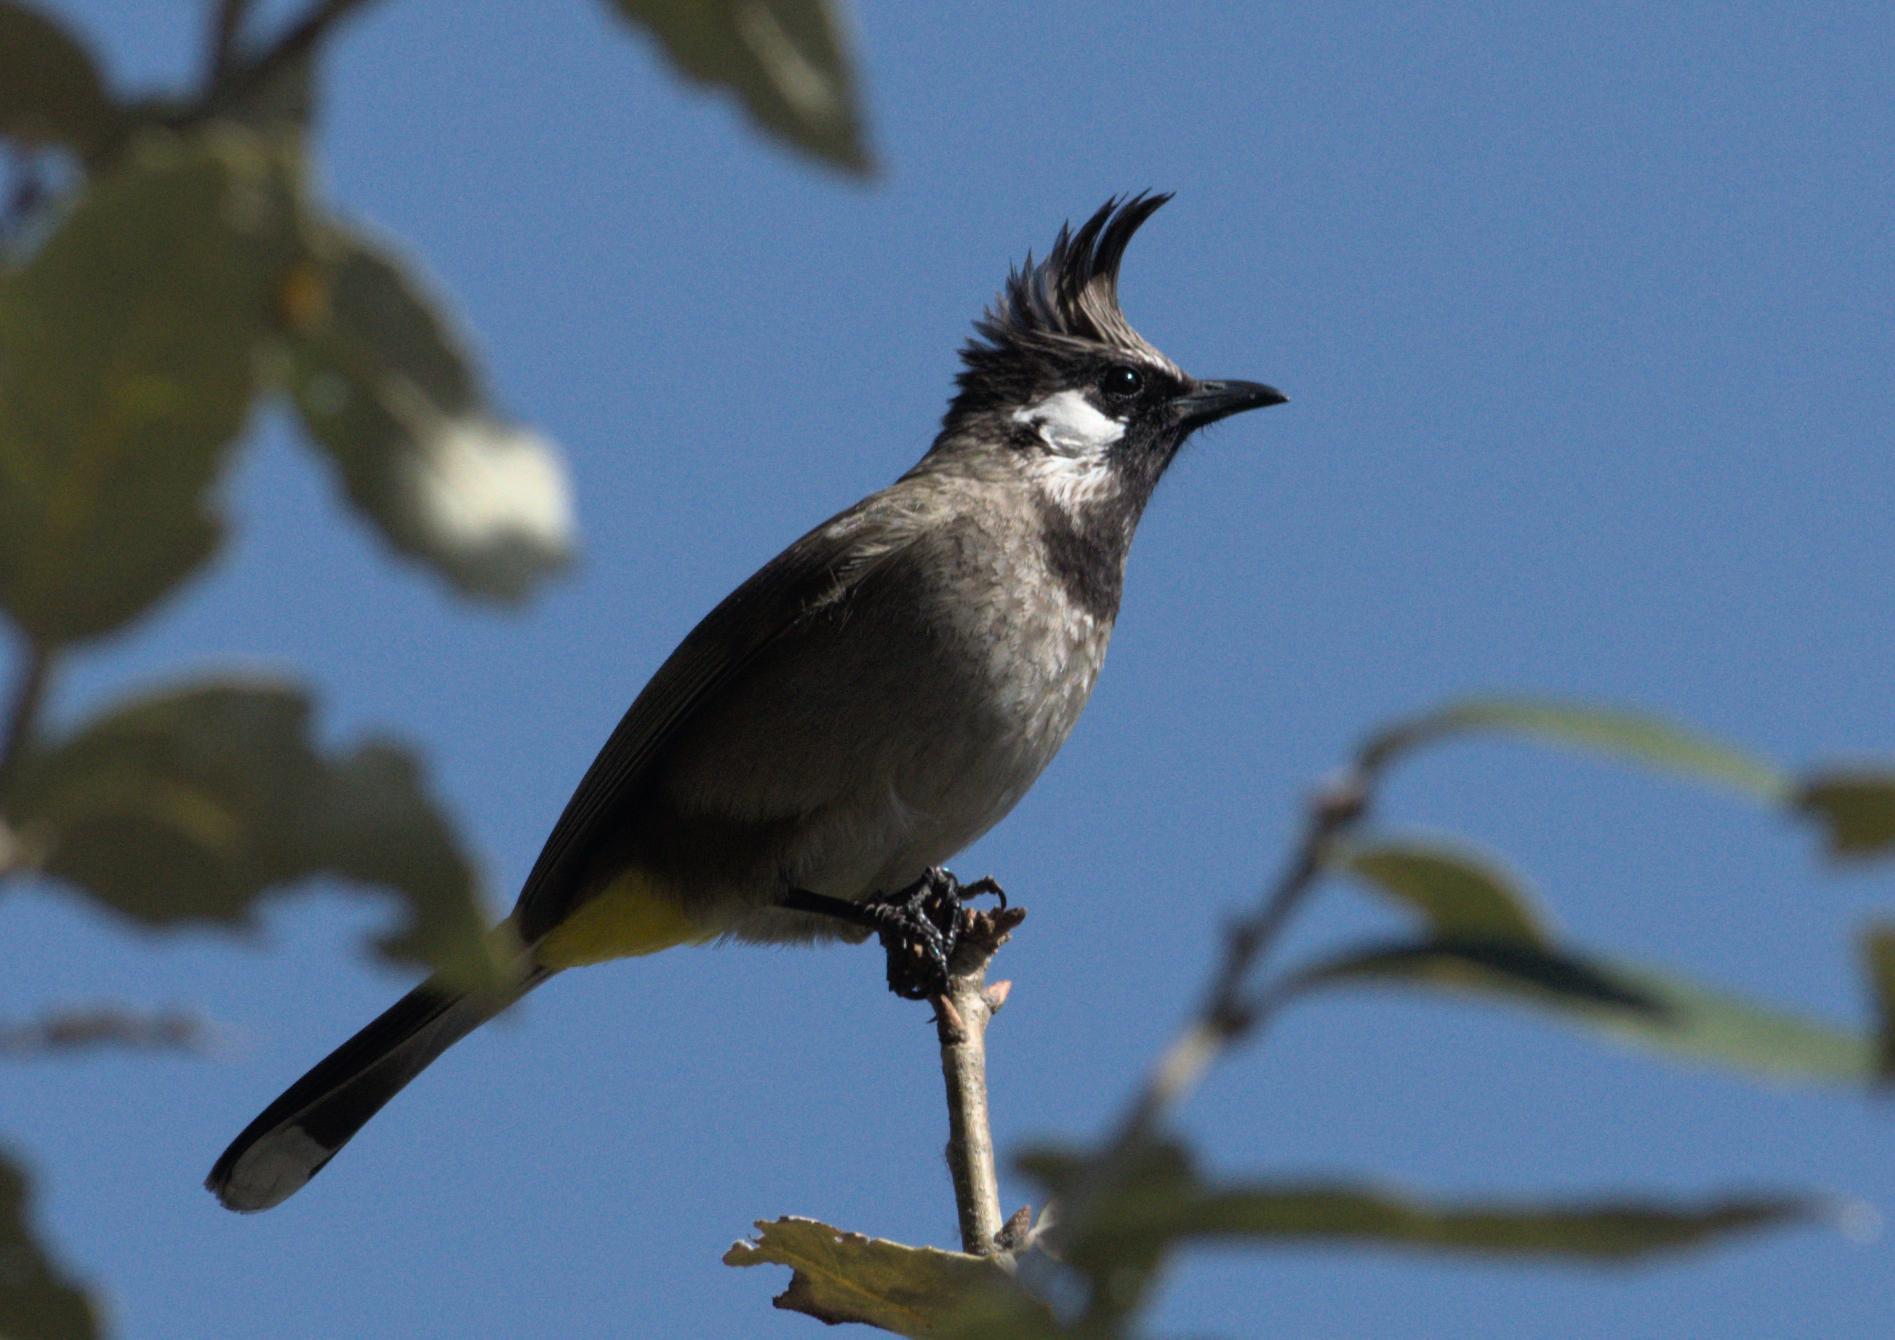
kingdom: Animalia
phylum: Chordata
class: Aves
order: Passeriformes
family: Pycnonotidae
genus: Pycnonotus
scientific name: Pycnonotus leucogenys
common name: Himalayan bulbul
